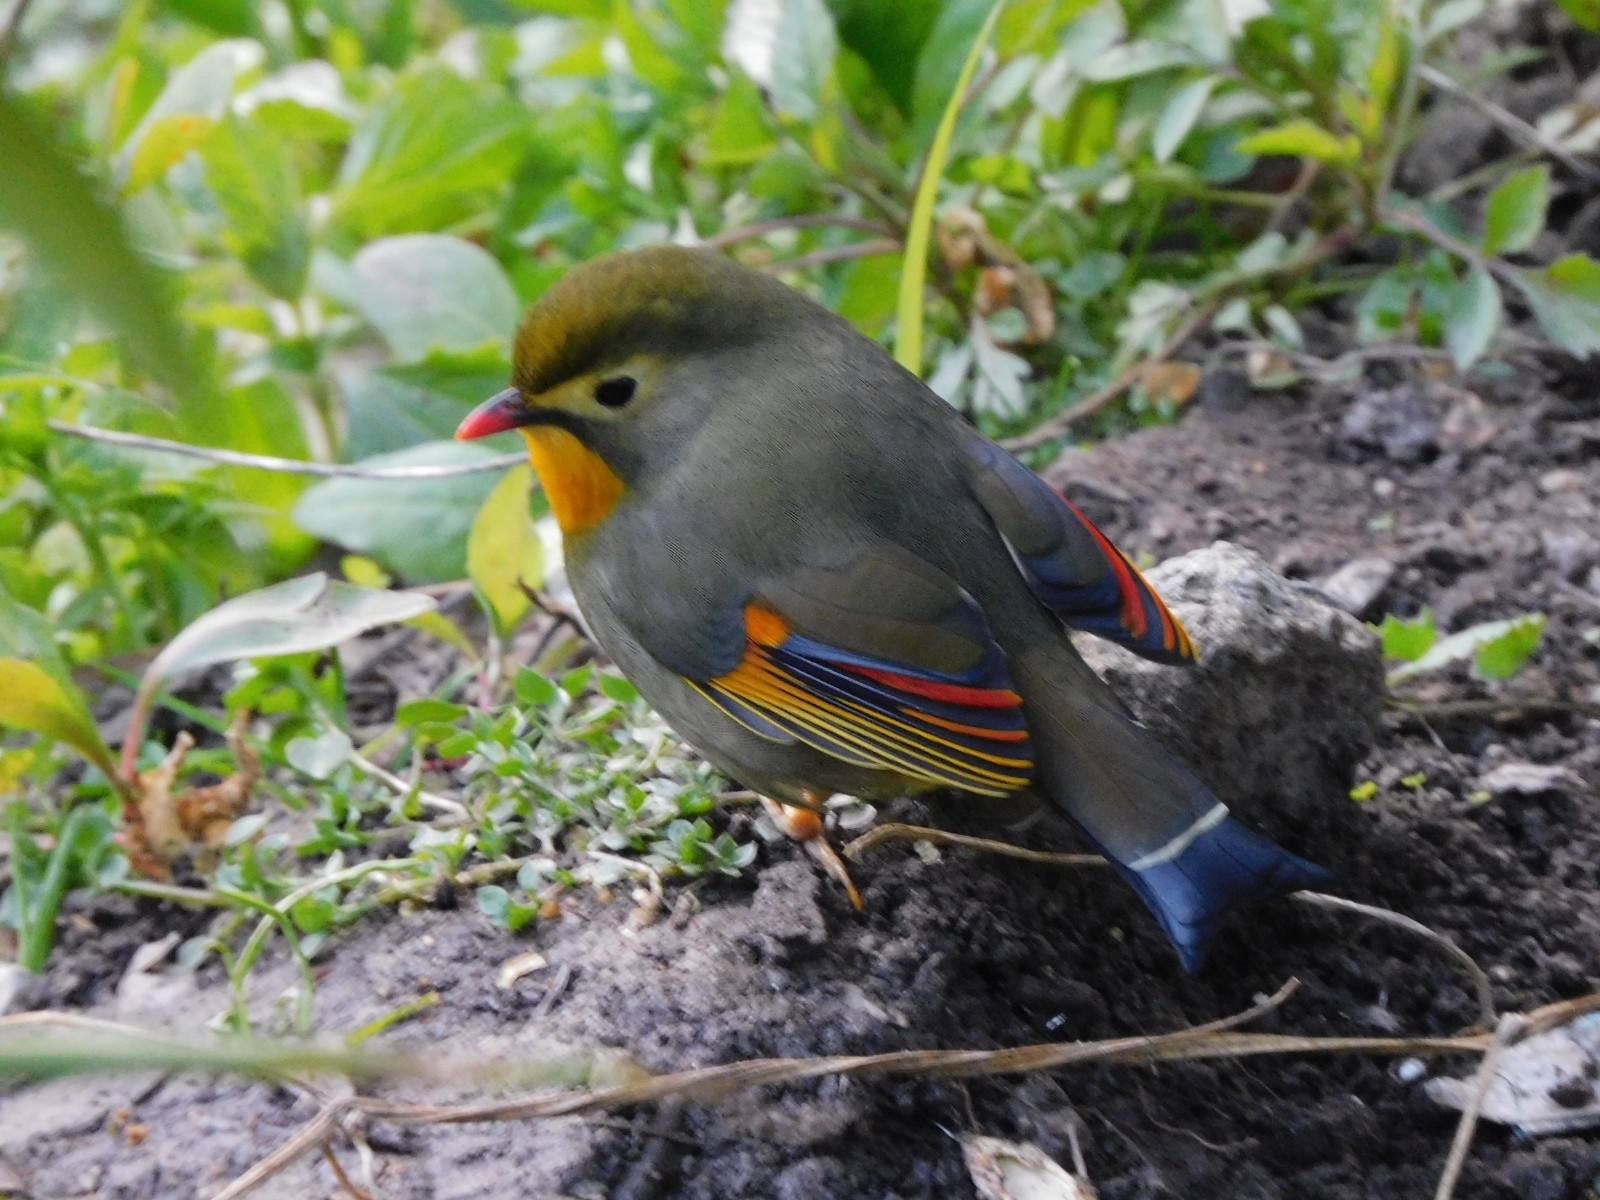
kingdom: Animalia
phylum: Chordata
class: Aves
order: Passeriformes
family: Leiothrichidae
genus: Leiothrix
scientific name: Leiothrix lutea
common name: Red-billed leiothrix
